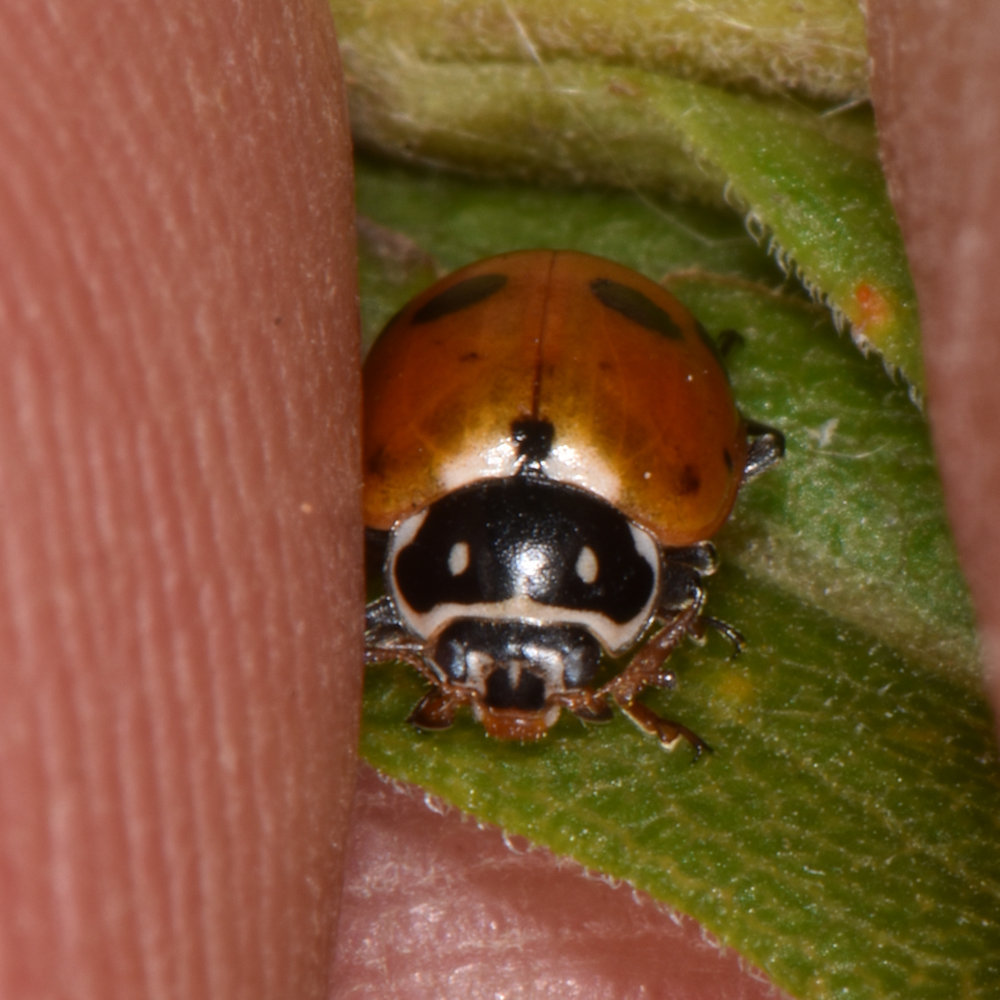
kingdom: Animalia
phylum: Arthropoda
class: Insecta
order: Coleoptera
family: Coccinellidae
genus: Hippodamia
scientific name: Hippodamia variegata
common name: Ladybird beetle
